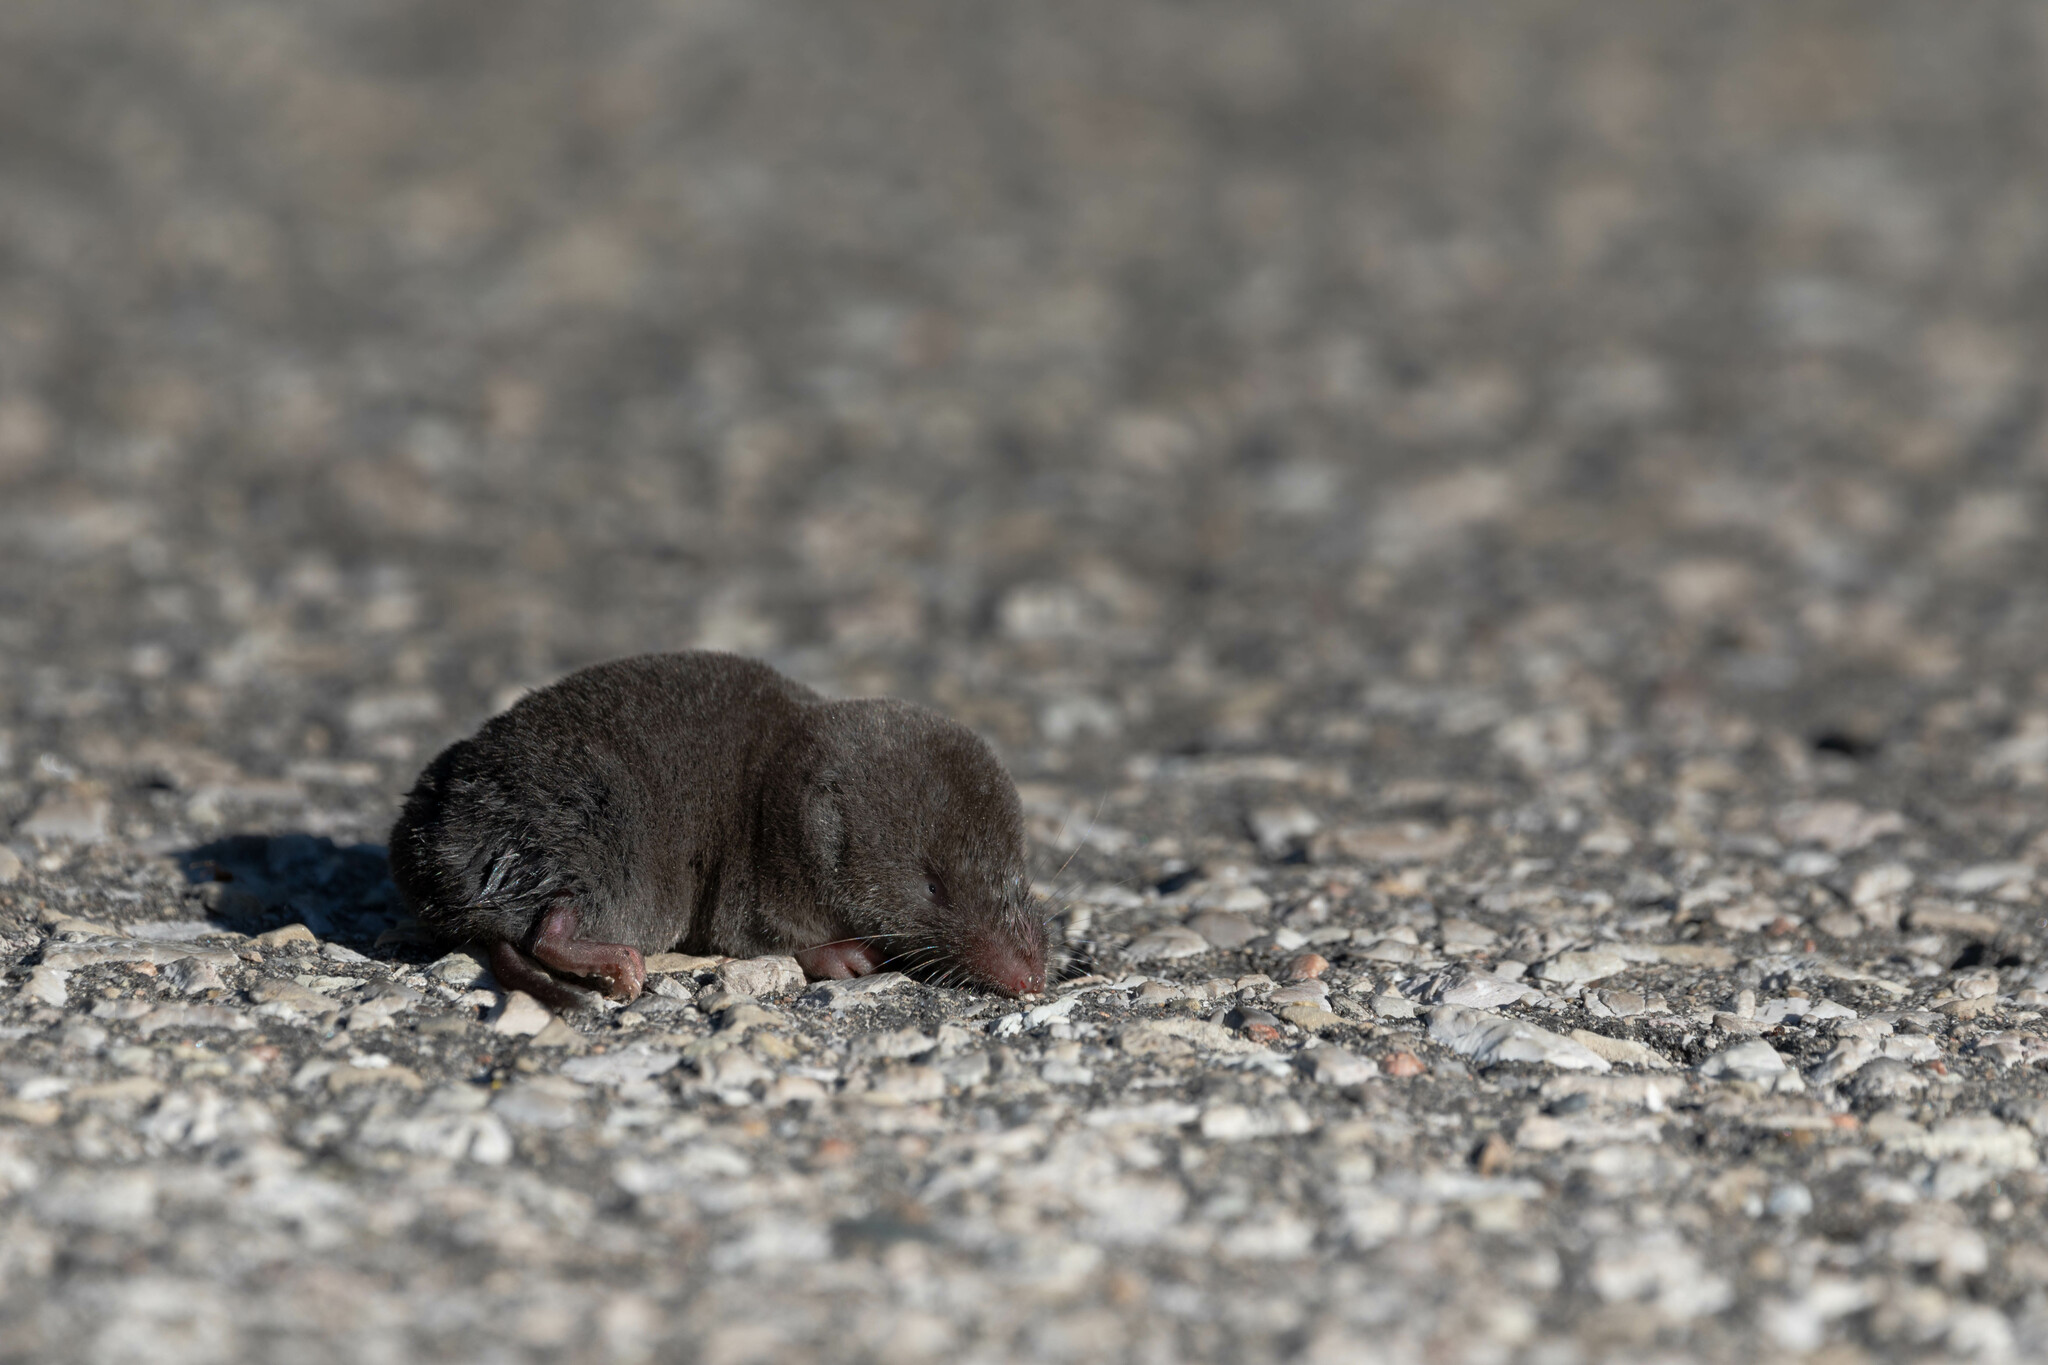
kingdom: Animalia
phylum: Chordata
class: Mammalia
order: Soricomorpha
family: Soricidae
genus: Blarina
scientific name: Blarina brevicauda
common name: Northern short-tailed shrew
